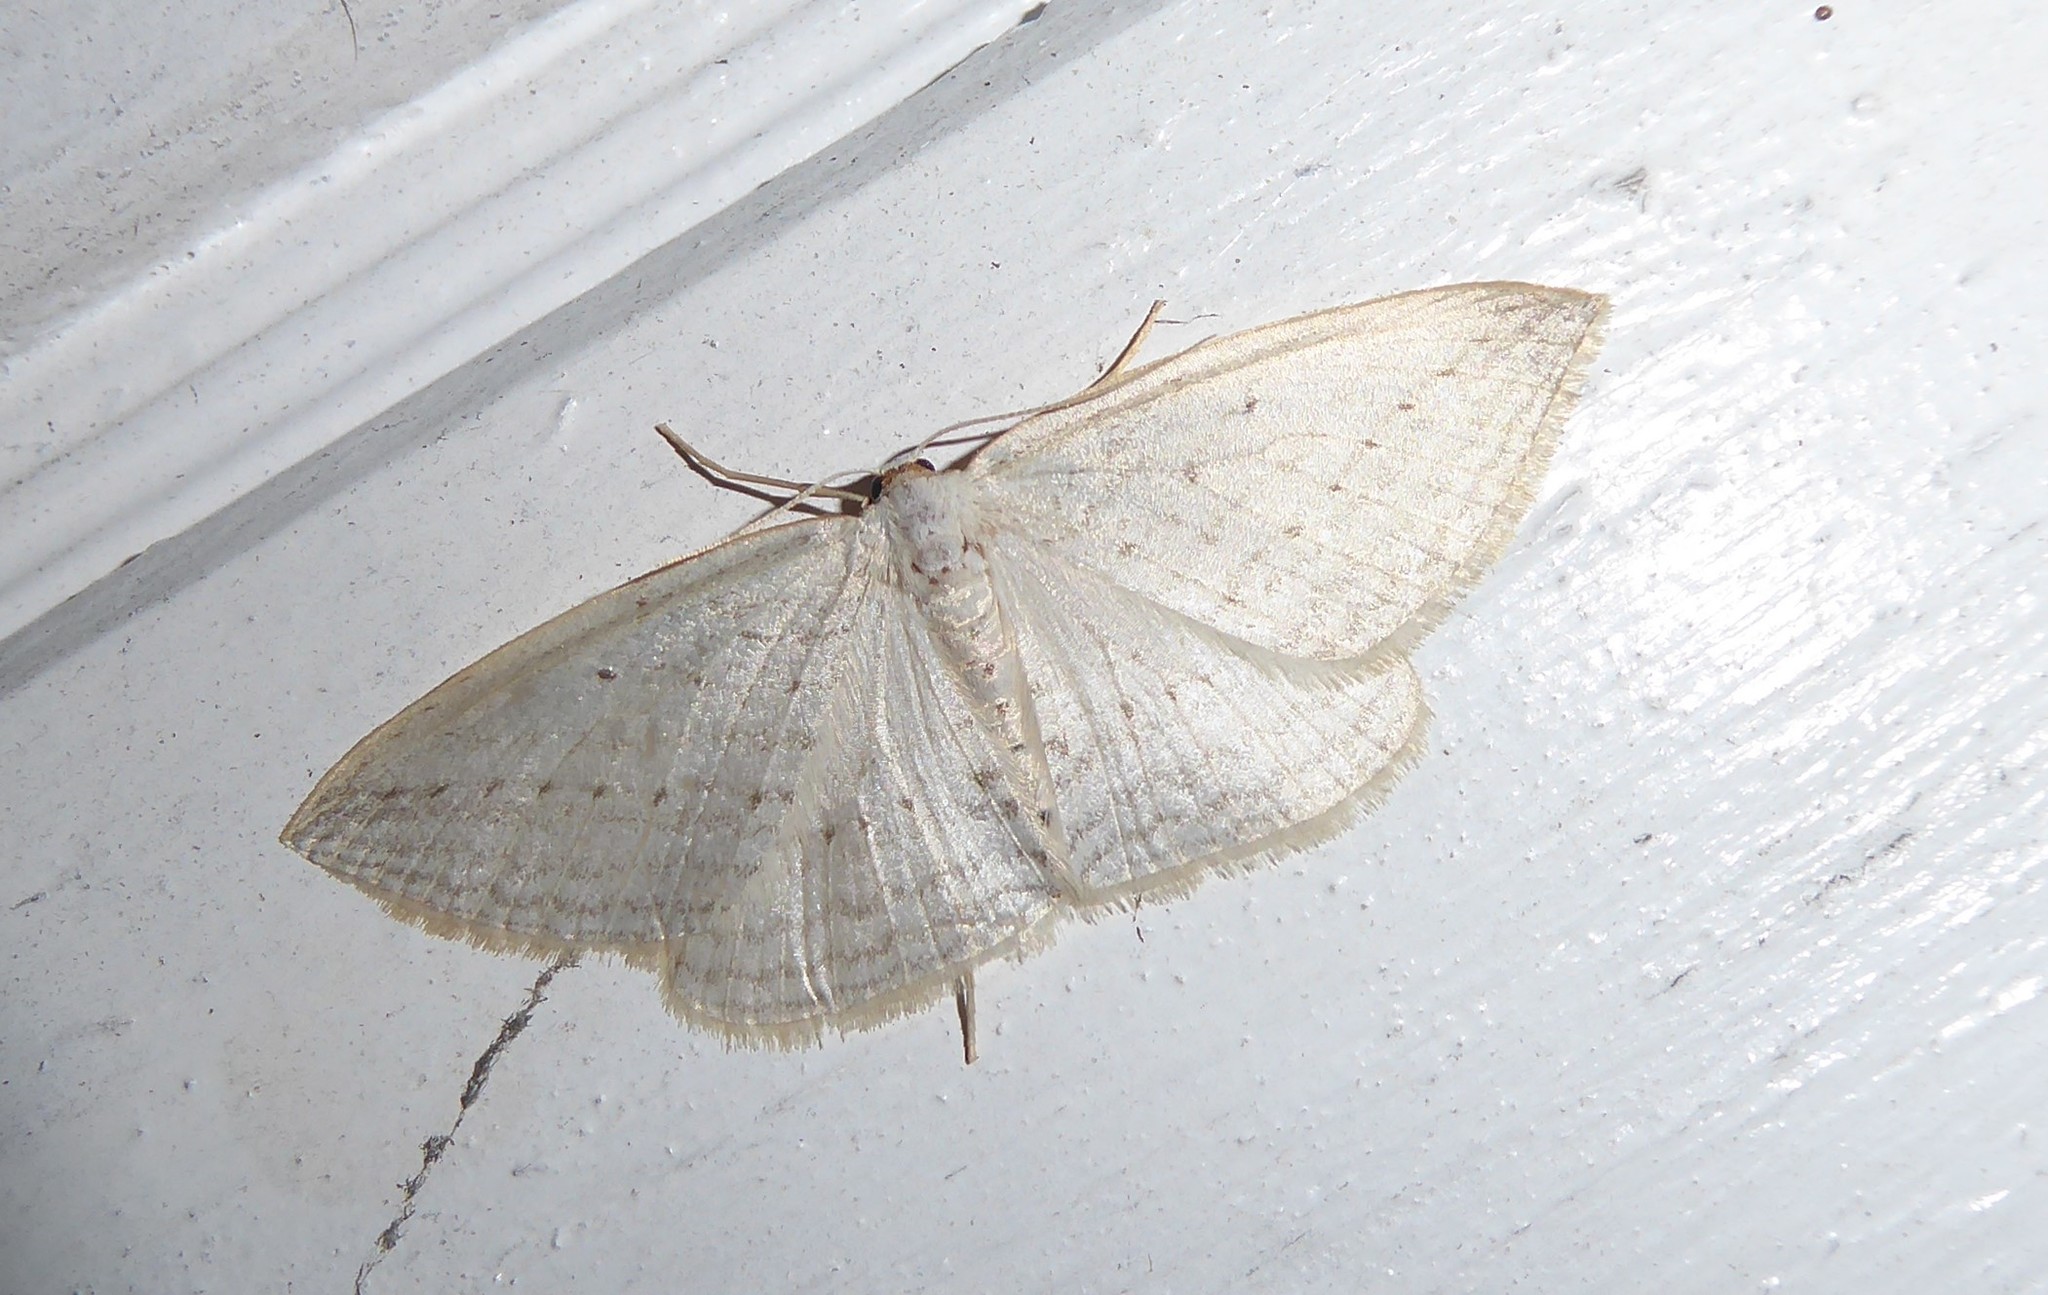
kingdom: Animalia
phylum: Arthropoda
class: Insecta
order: Lepidoptera
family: Geometridae
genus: Orthoclydon
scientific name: Orthoclydon praefectata
